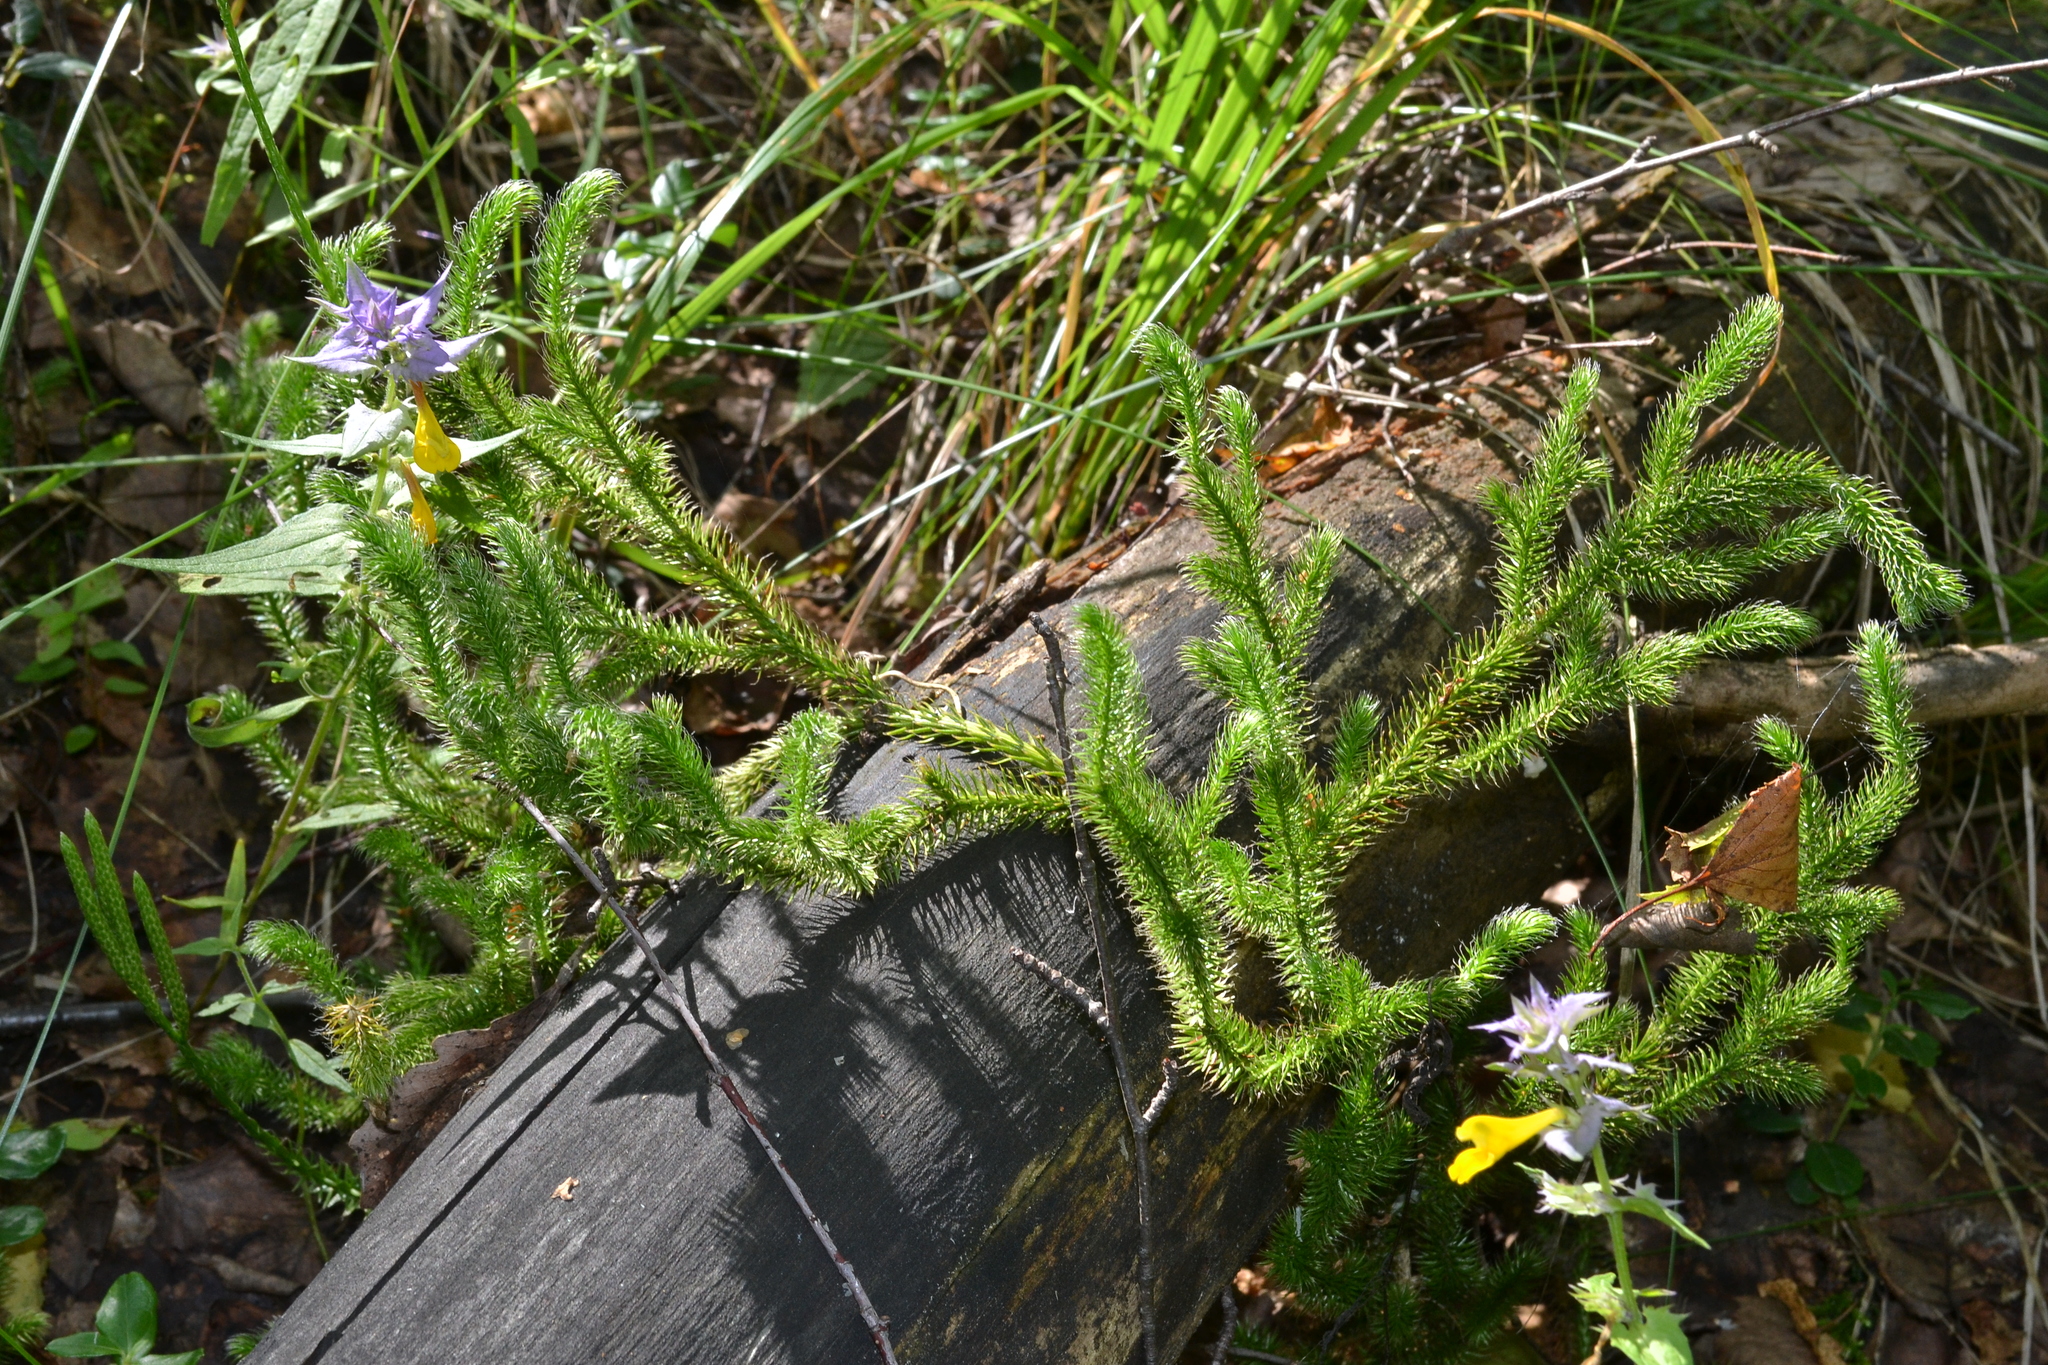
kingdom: Plantae
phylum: Tracheophyta
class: Lycopodiopsida
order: Lycopodiales
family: Lycopodiaceae
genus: Lycopodium
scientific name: Lycopodium clavatum
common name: Stag's-horn clubmoss
